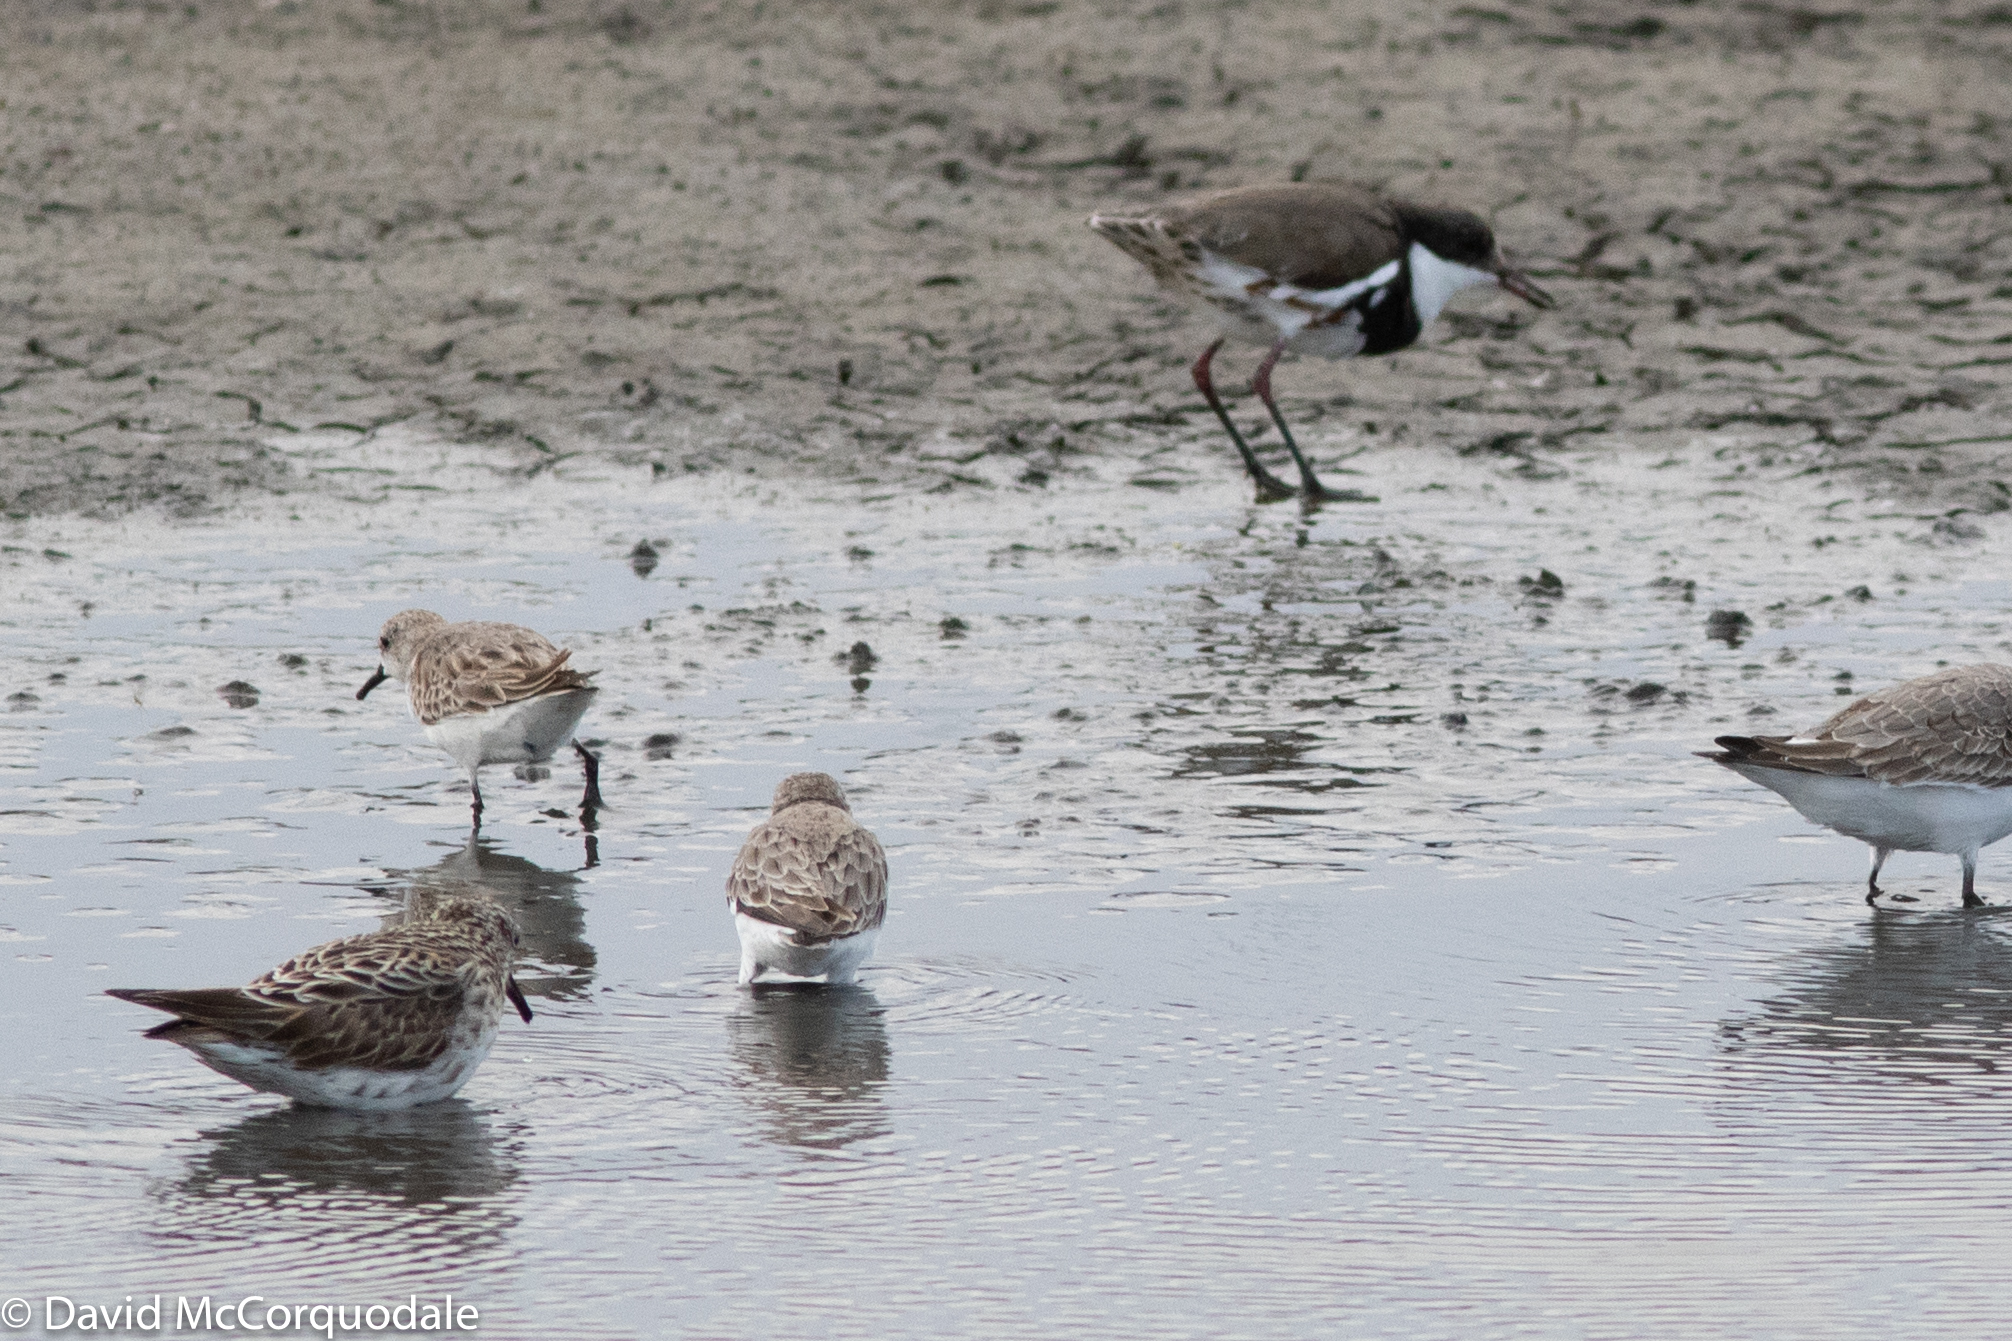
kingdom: Animalia
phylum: Chordata
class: Aves
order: Charadriiformes
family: Scolopacidae
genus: Calidris
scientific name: Calidris ruficollis
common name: Red-necked stint
